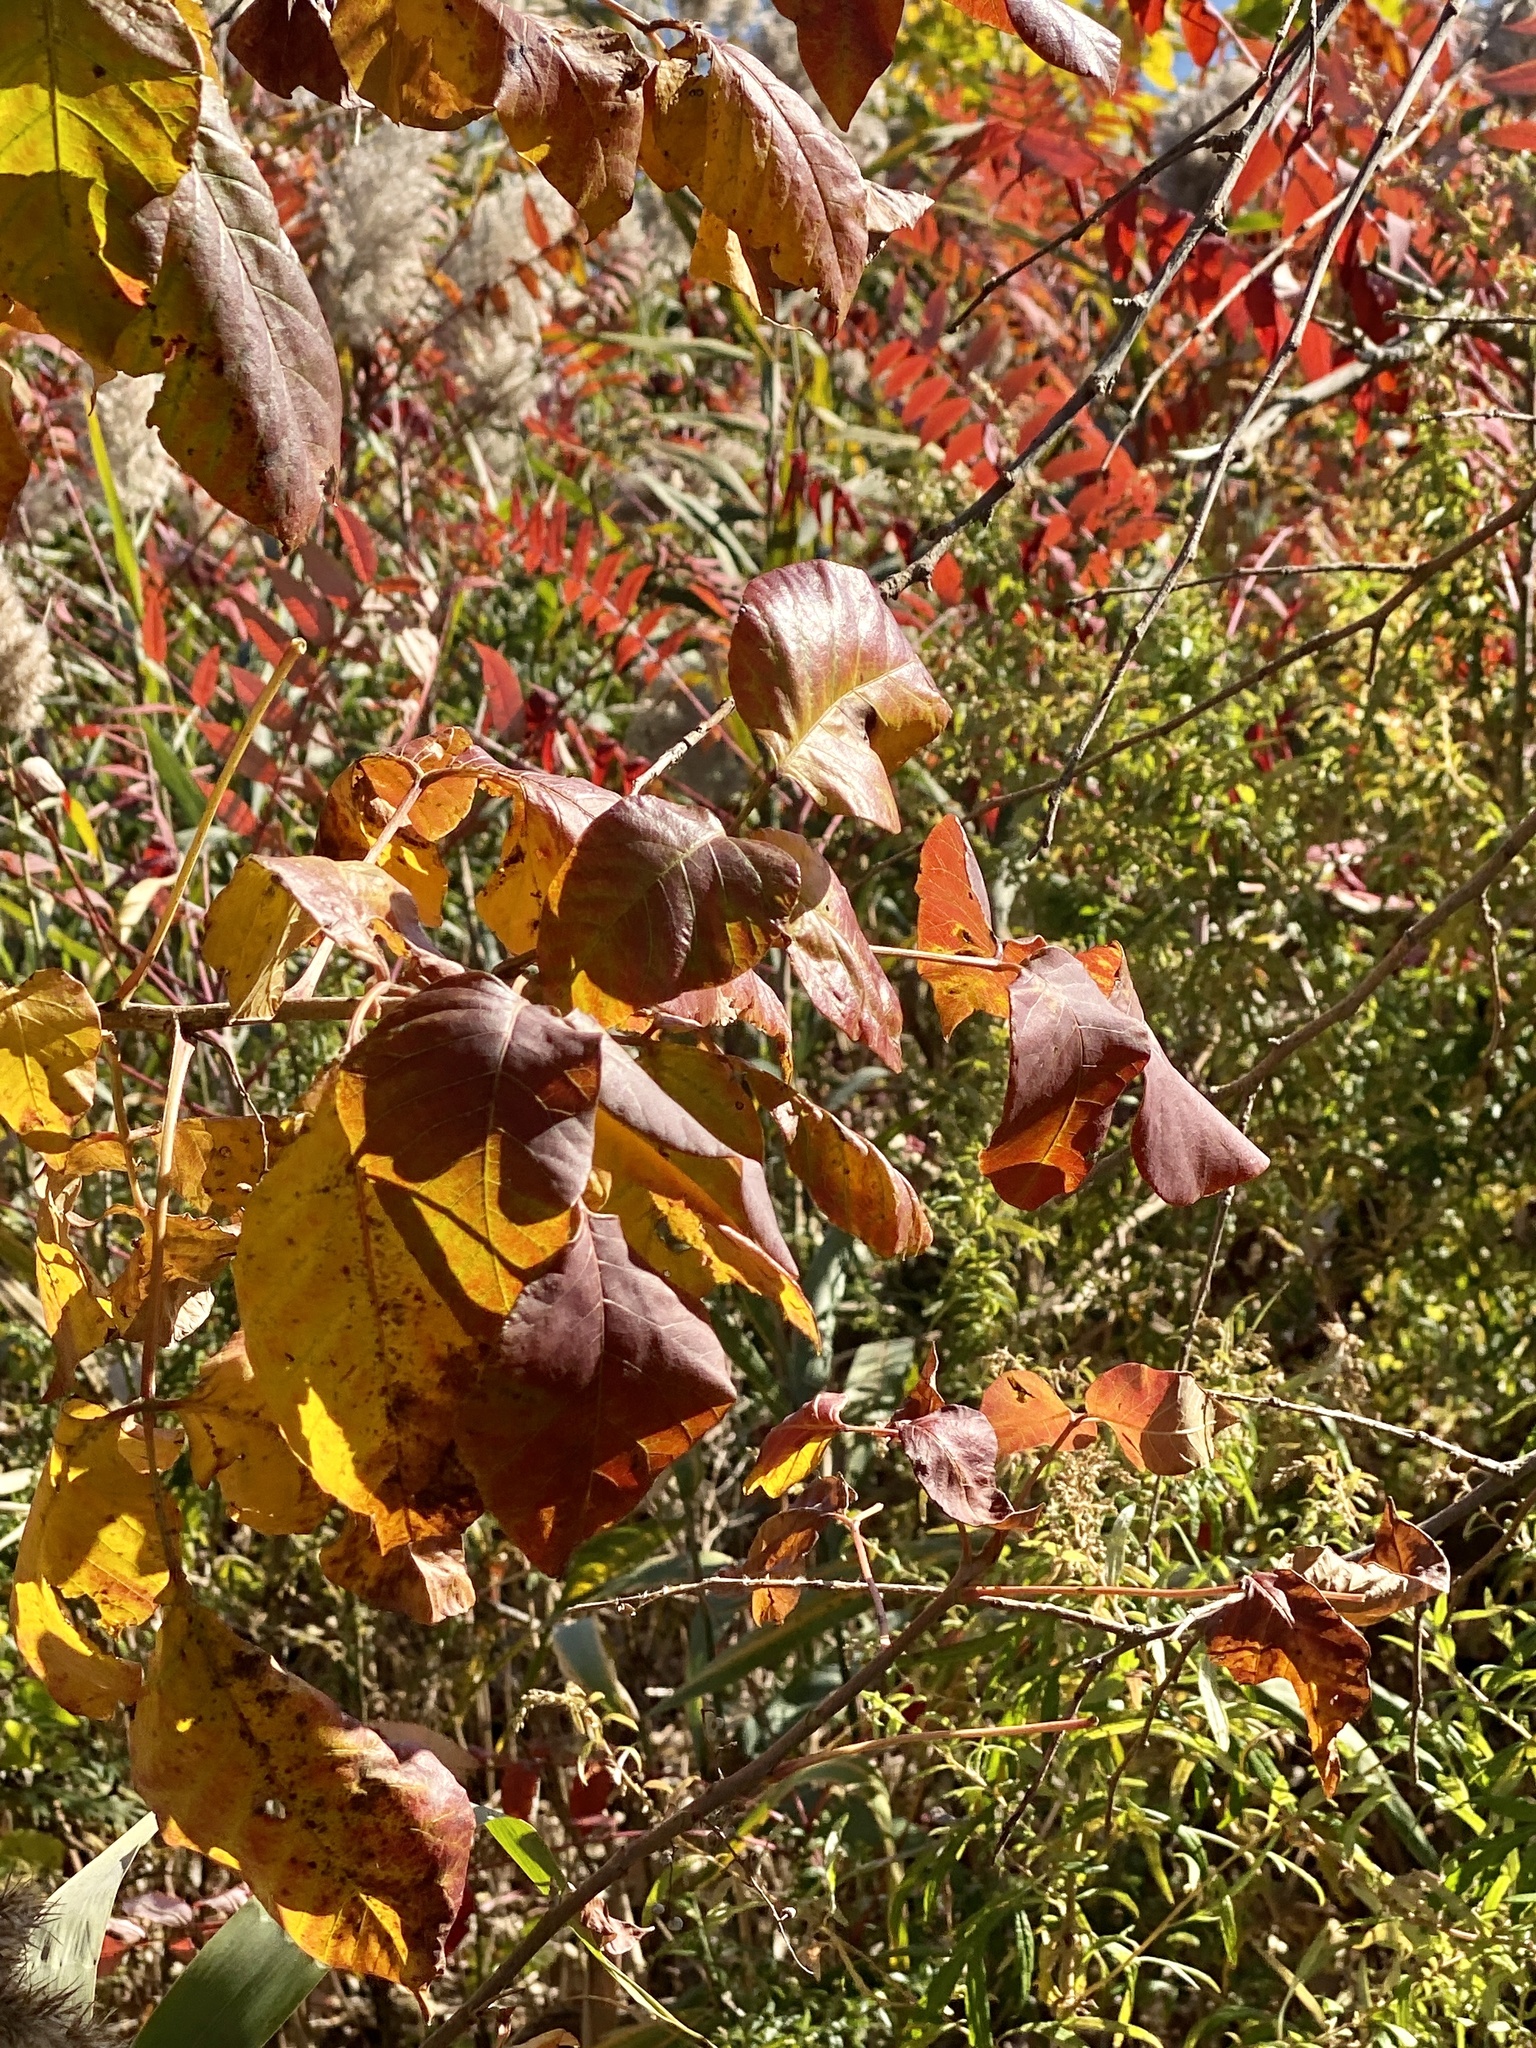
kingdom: Plantae
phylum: Tracheophyta
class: Magnoliopsida
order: Sapindales
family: Anacardiaceae
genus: Toxicodendron
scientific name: Toxicodendron radicans
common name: Poison ivy
